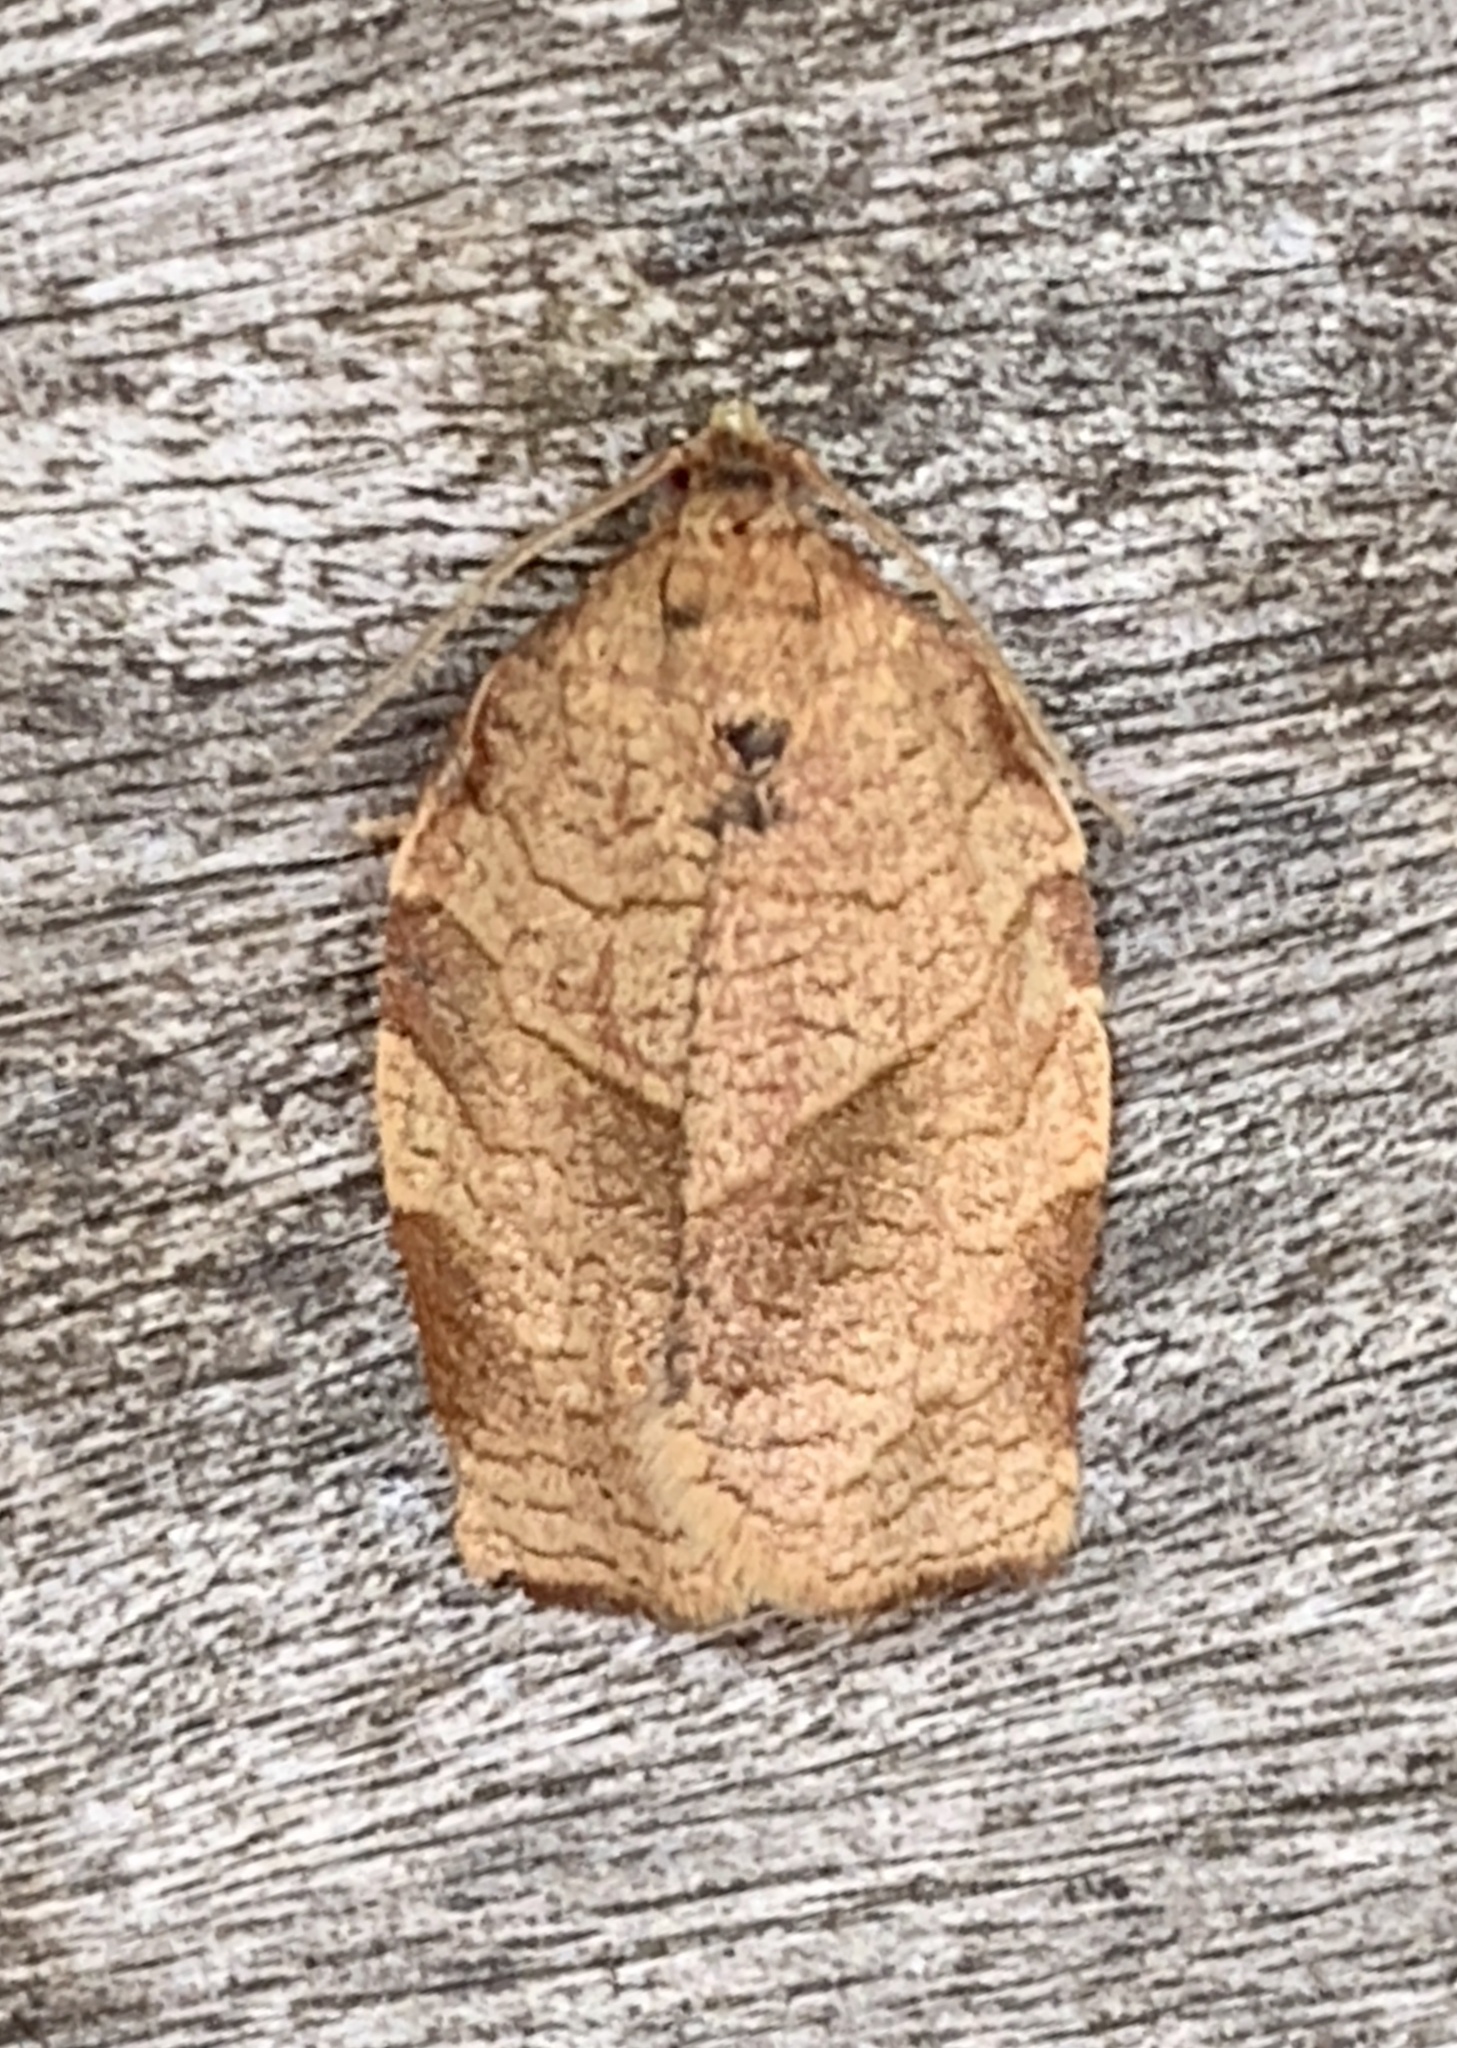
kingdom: Animalia
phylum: Arthropoda
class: Insecta
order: Lepidoptera
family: Tortricidae
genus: Choristoneura
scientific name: Choristoneura rosaceana
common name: Oblique-banded leafroller moth
